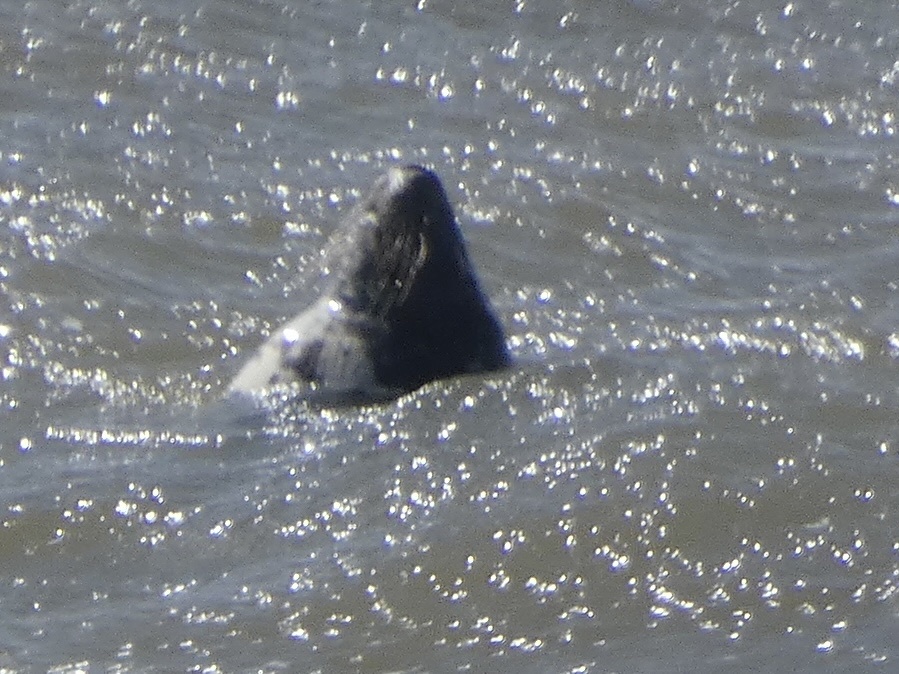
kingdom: Animalia
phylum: Chordata
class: Mammalia
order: Carnivora
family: Phocidae
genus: Halichoerus
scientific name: Halichoerus grypus
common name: Grey seal
